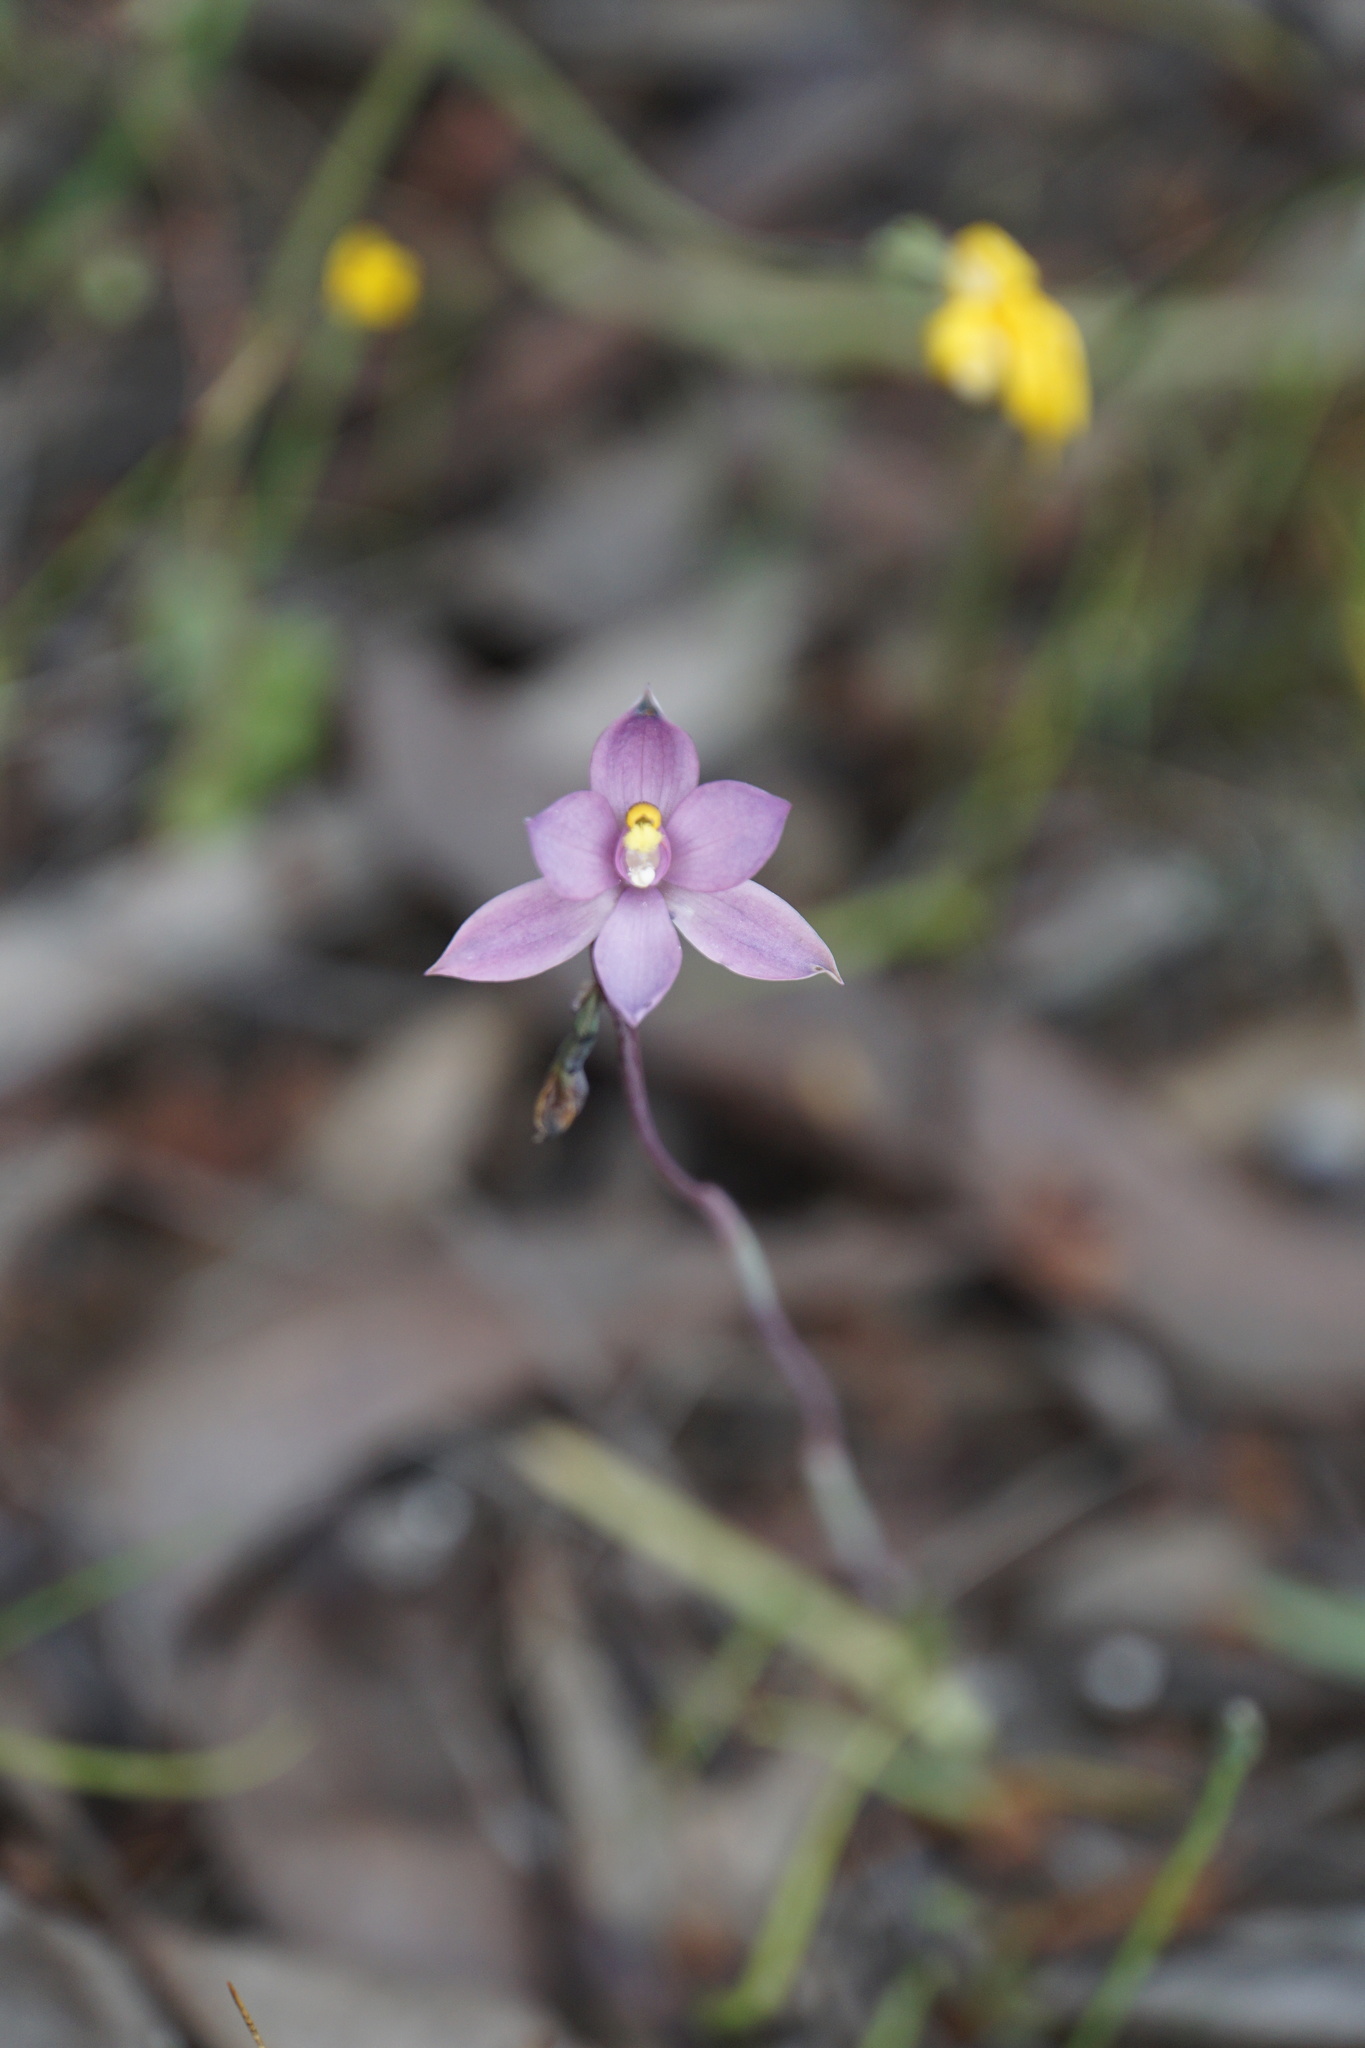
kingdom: Plantae
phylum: Tracheophyta
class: Liliopsida
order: Asparagales
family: Orchidaceae
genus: Thelymitra
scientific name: Thelymitra chasmogama
